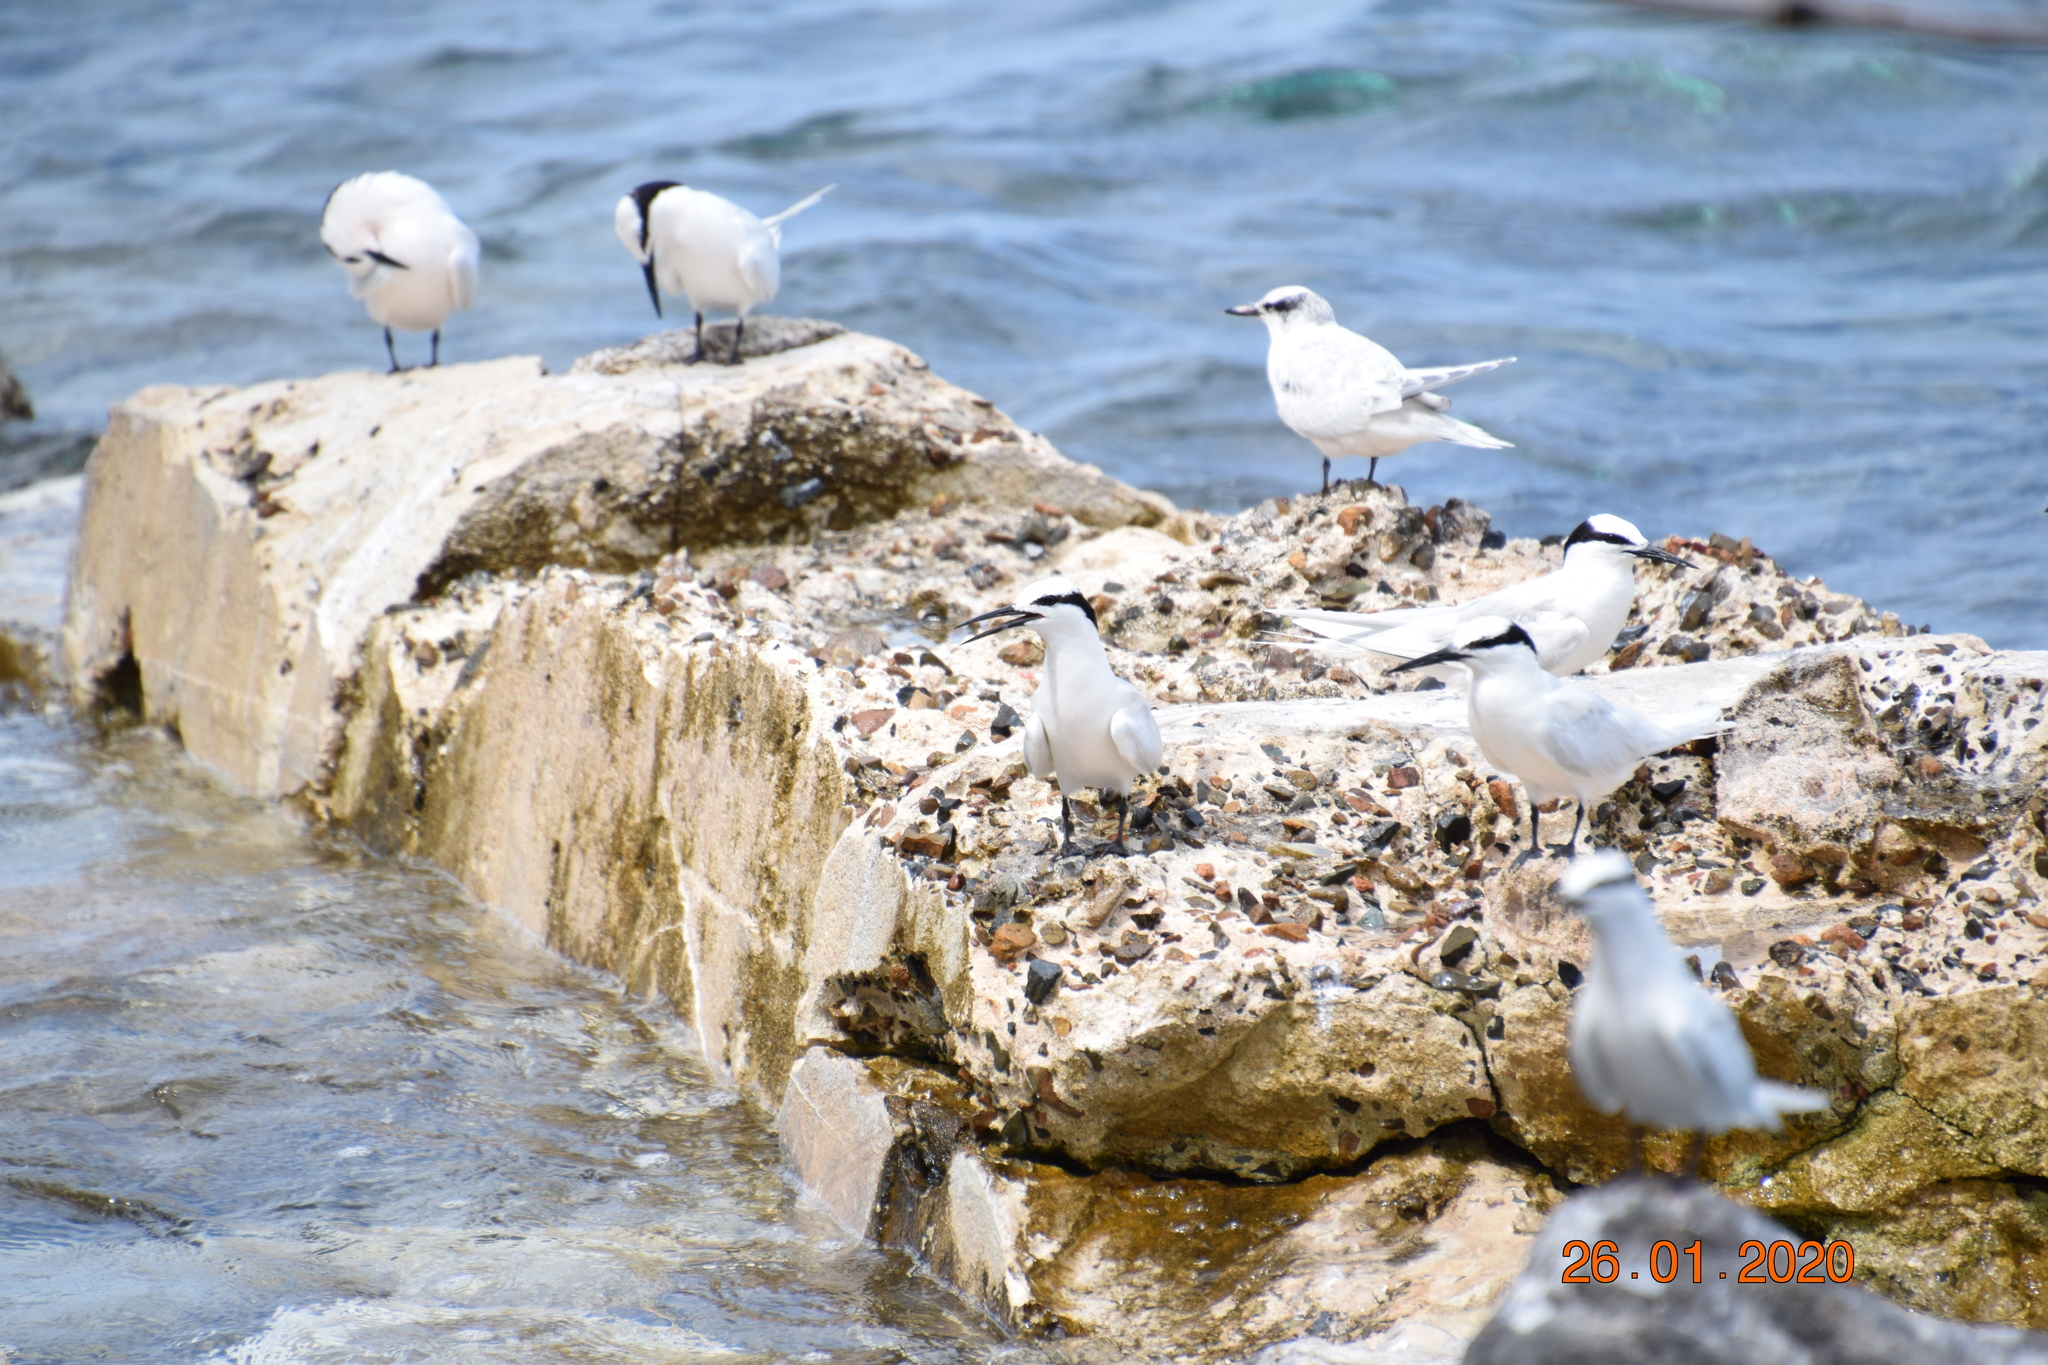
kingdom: Animalia
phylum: Chordata
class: Aves
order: Charadriiformes
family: Laridae
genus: Sterna
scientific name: Sterna sumatrana
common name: Black-naped tern
